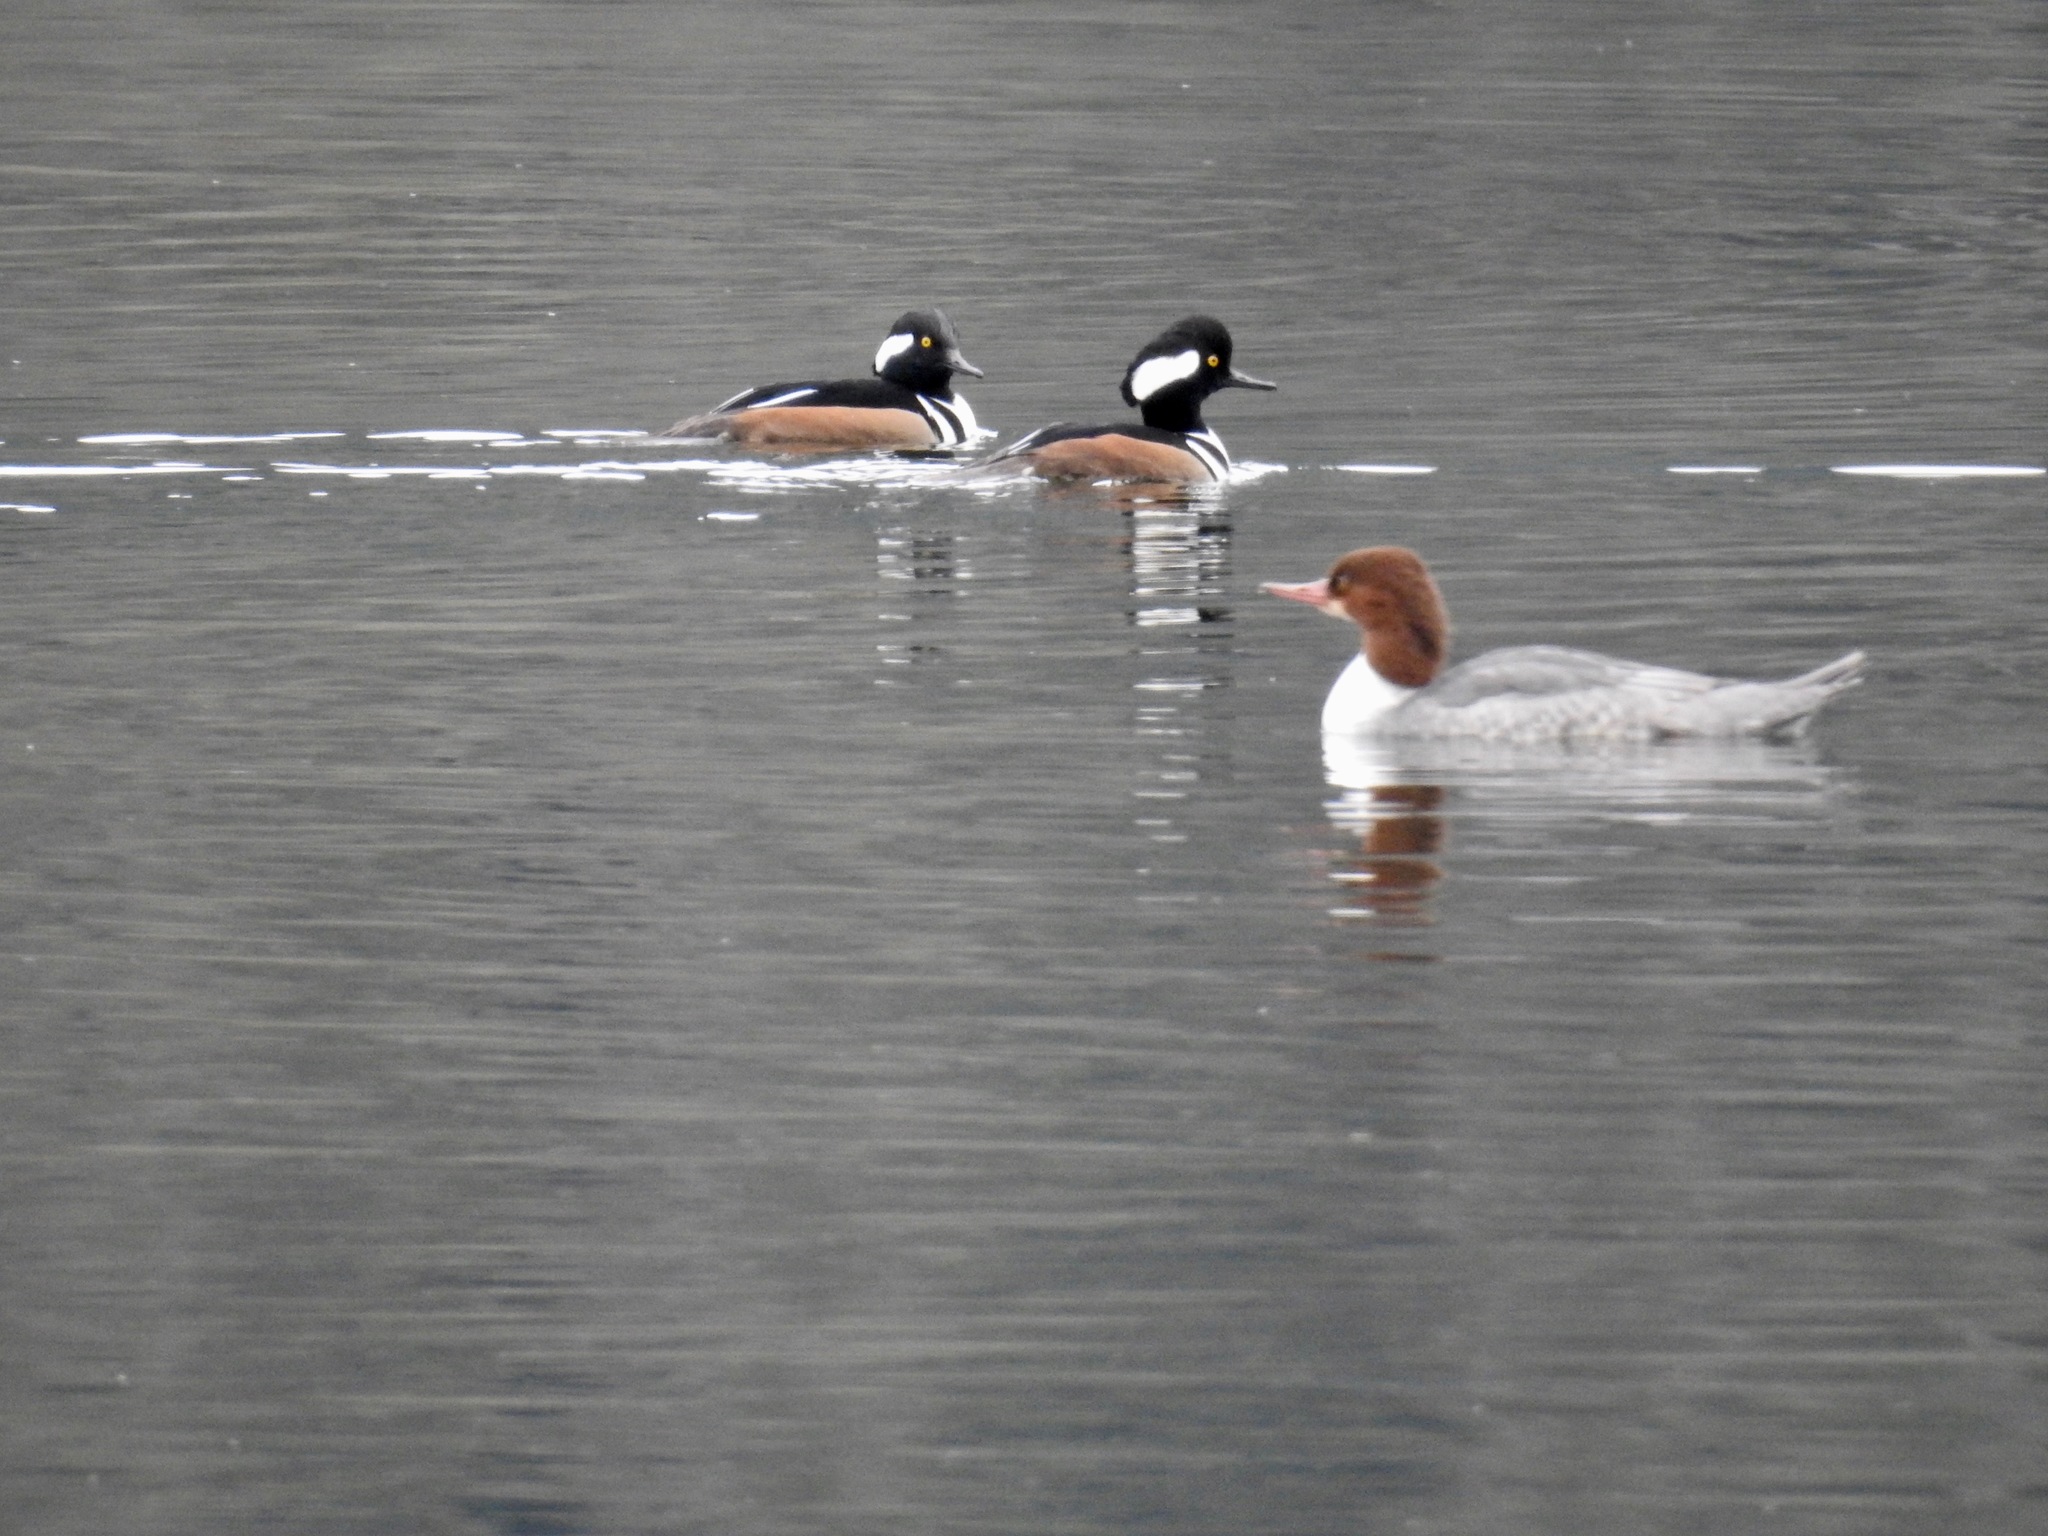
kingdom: Animalia
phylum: Chordata
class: Aves
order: Anseriformes
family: Anatidae
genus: Lophodytes
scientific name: Lophodytes cucullatus
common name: Hooded merganser
